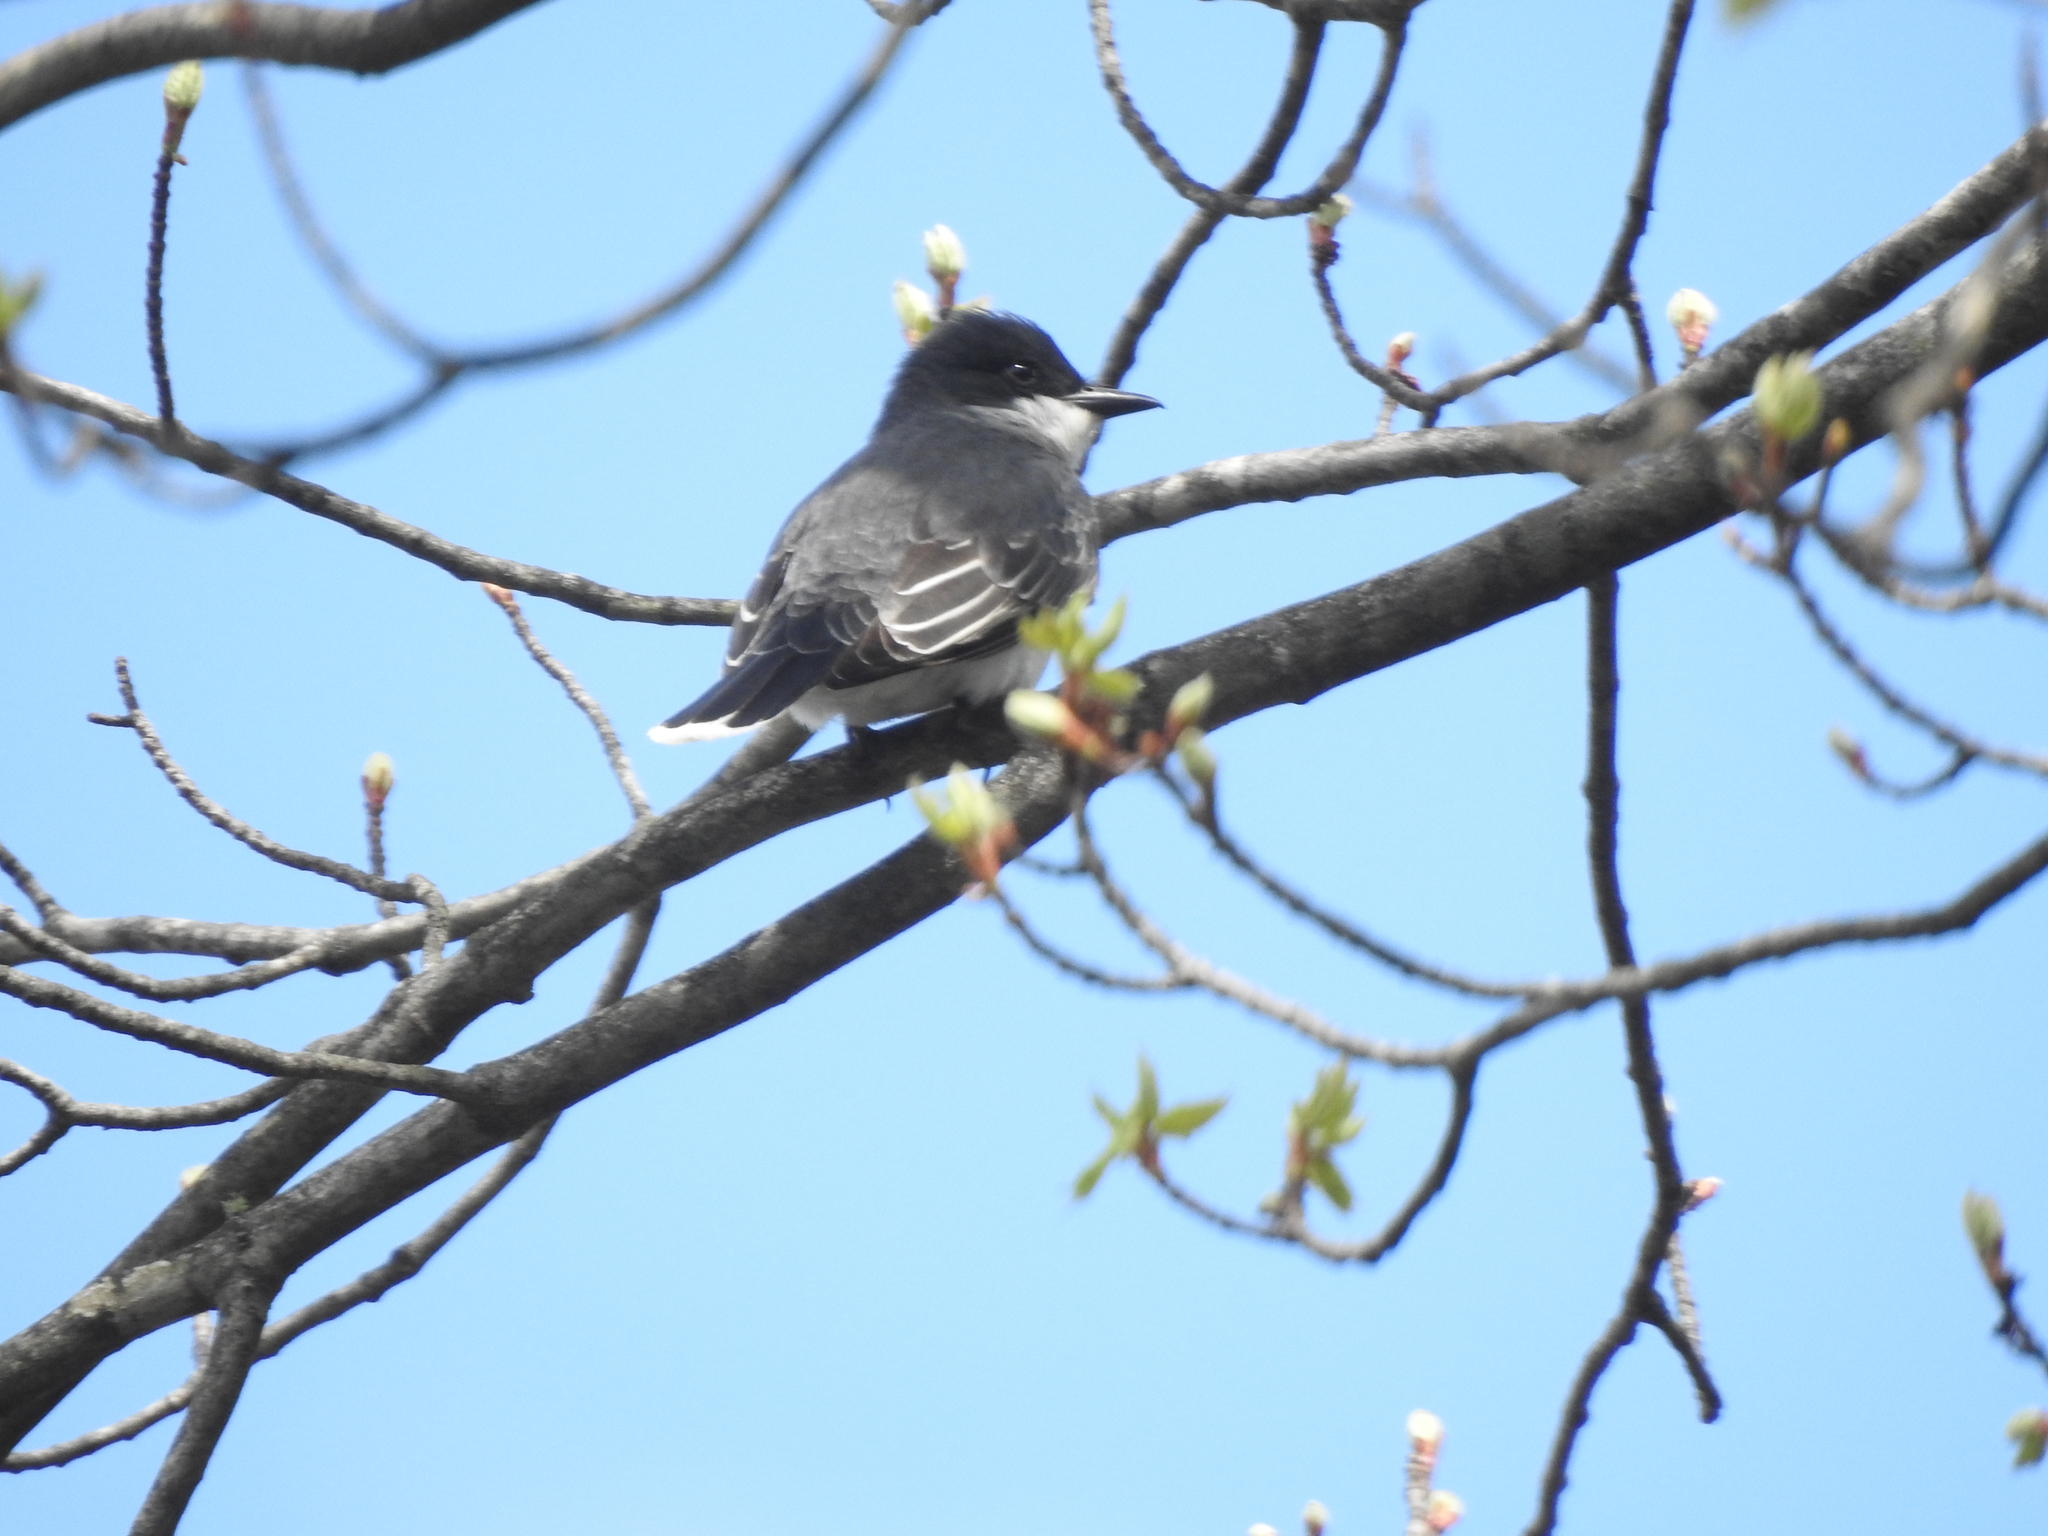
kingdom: Animalia
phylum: Chordata
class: Aves
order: Passeriformes
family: Tyrannidae
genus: Tyrannus
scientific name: Tyrannus tyrannus
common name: Eastern kingbird
